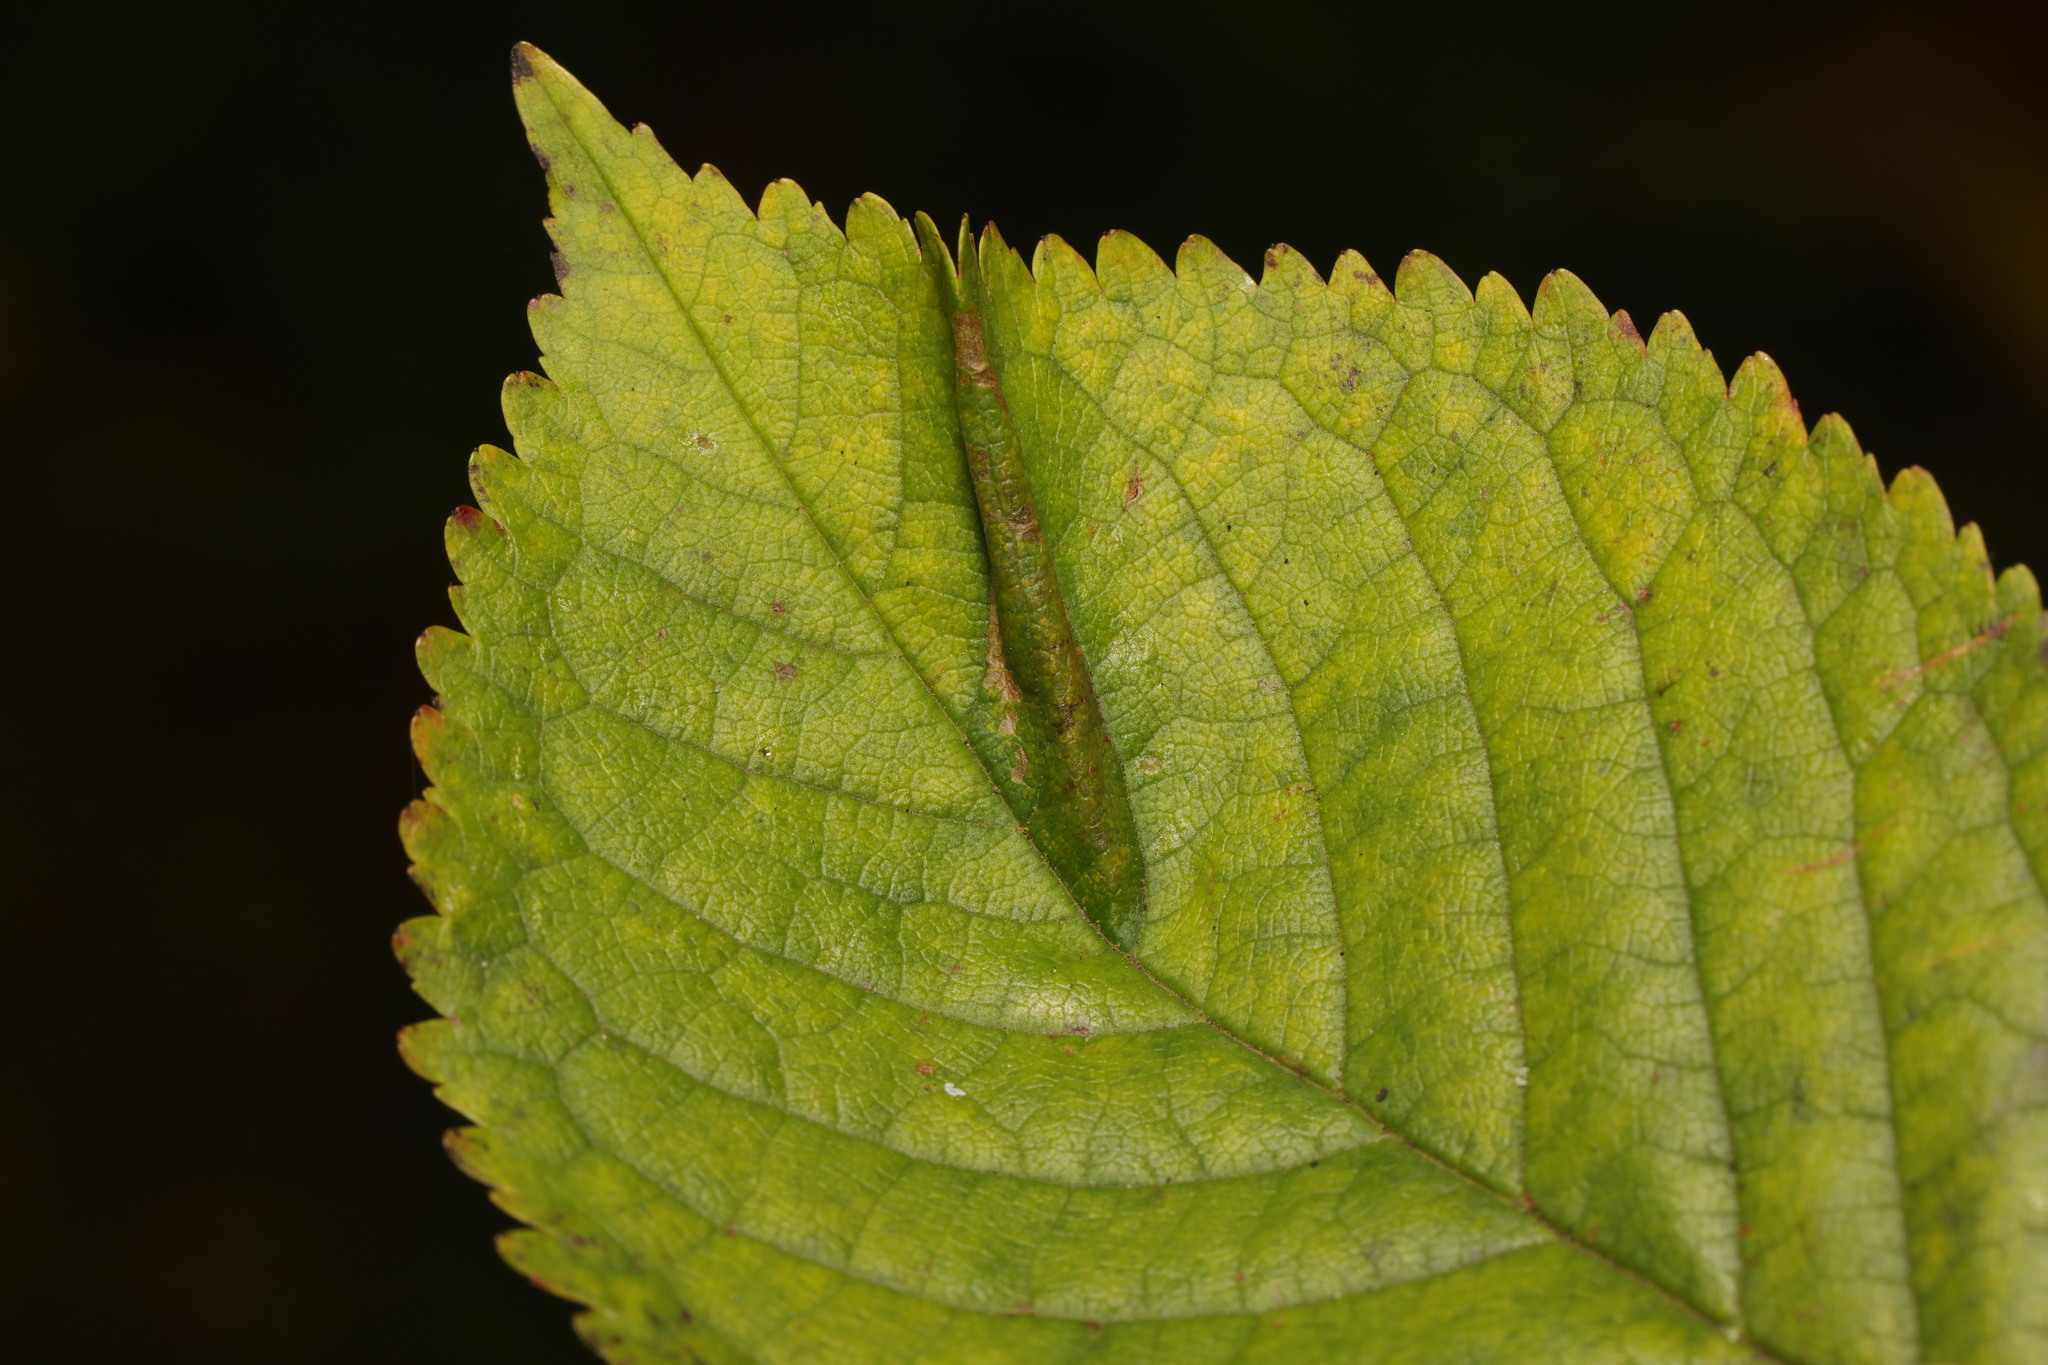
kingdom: Animalia
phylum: Arthropoda
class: Insecta
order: Lepidoptera
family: Gracillariidae
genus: Phyllonorycter
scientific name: Phyllonorycter cerasicolella
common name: Cherry midget
